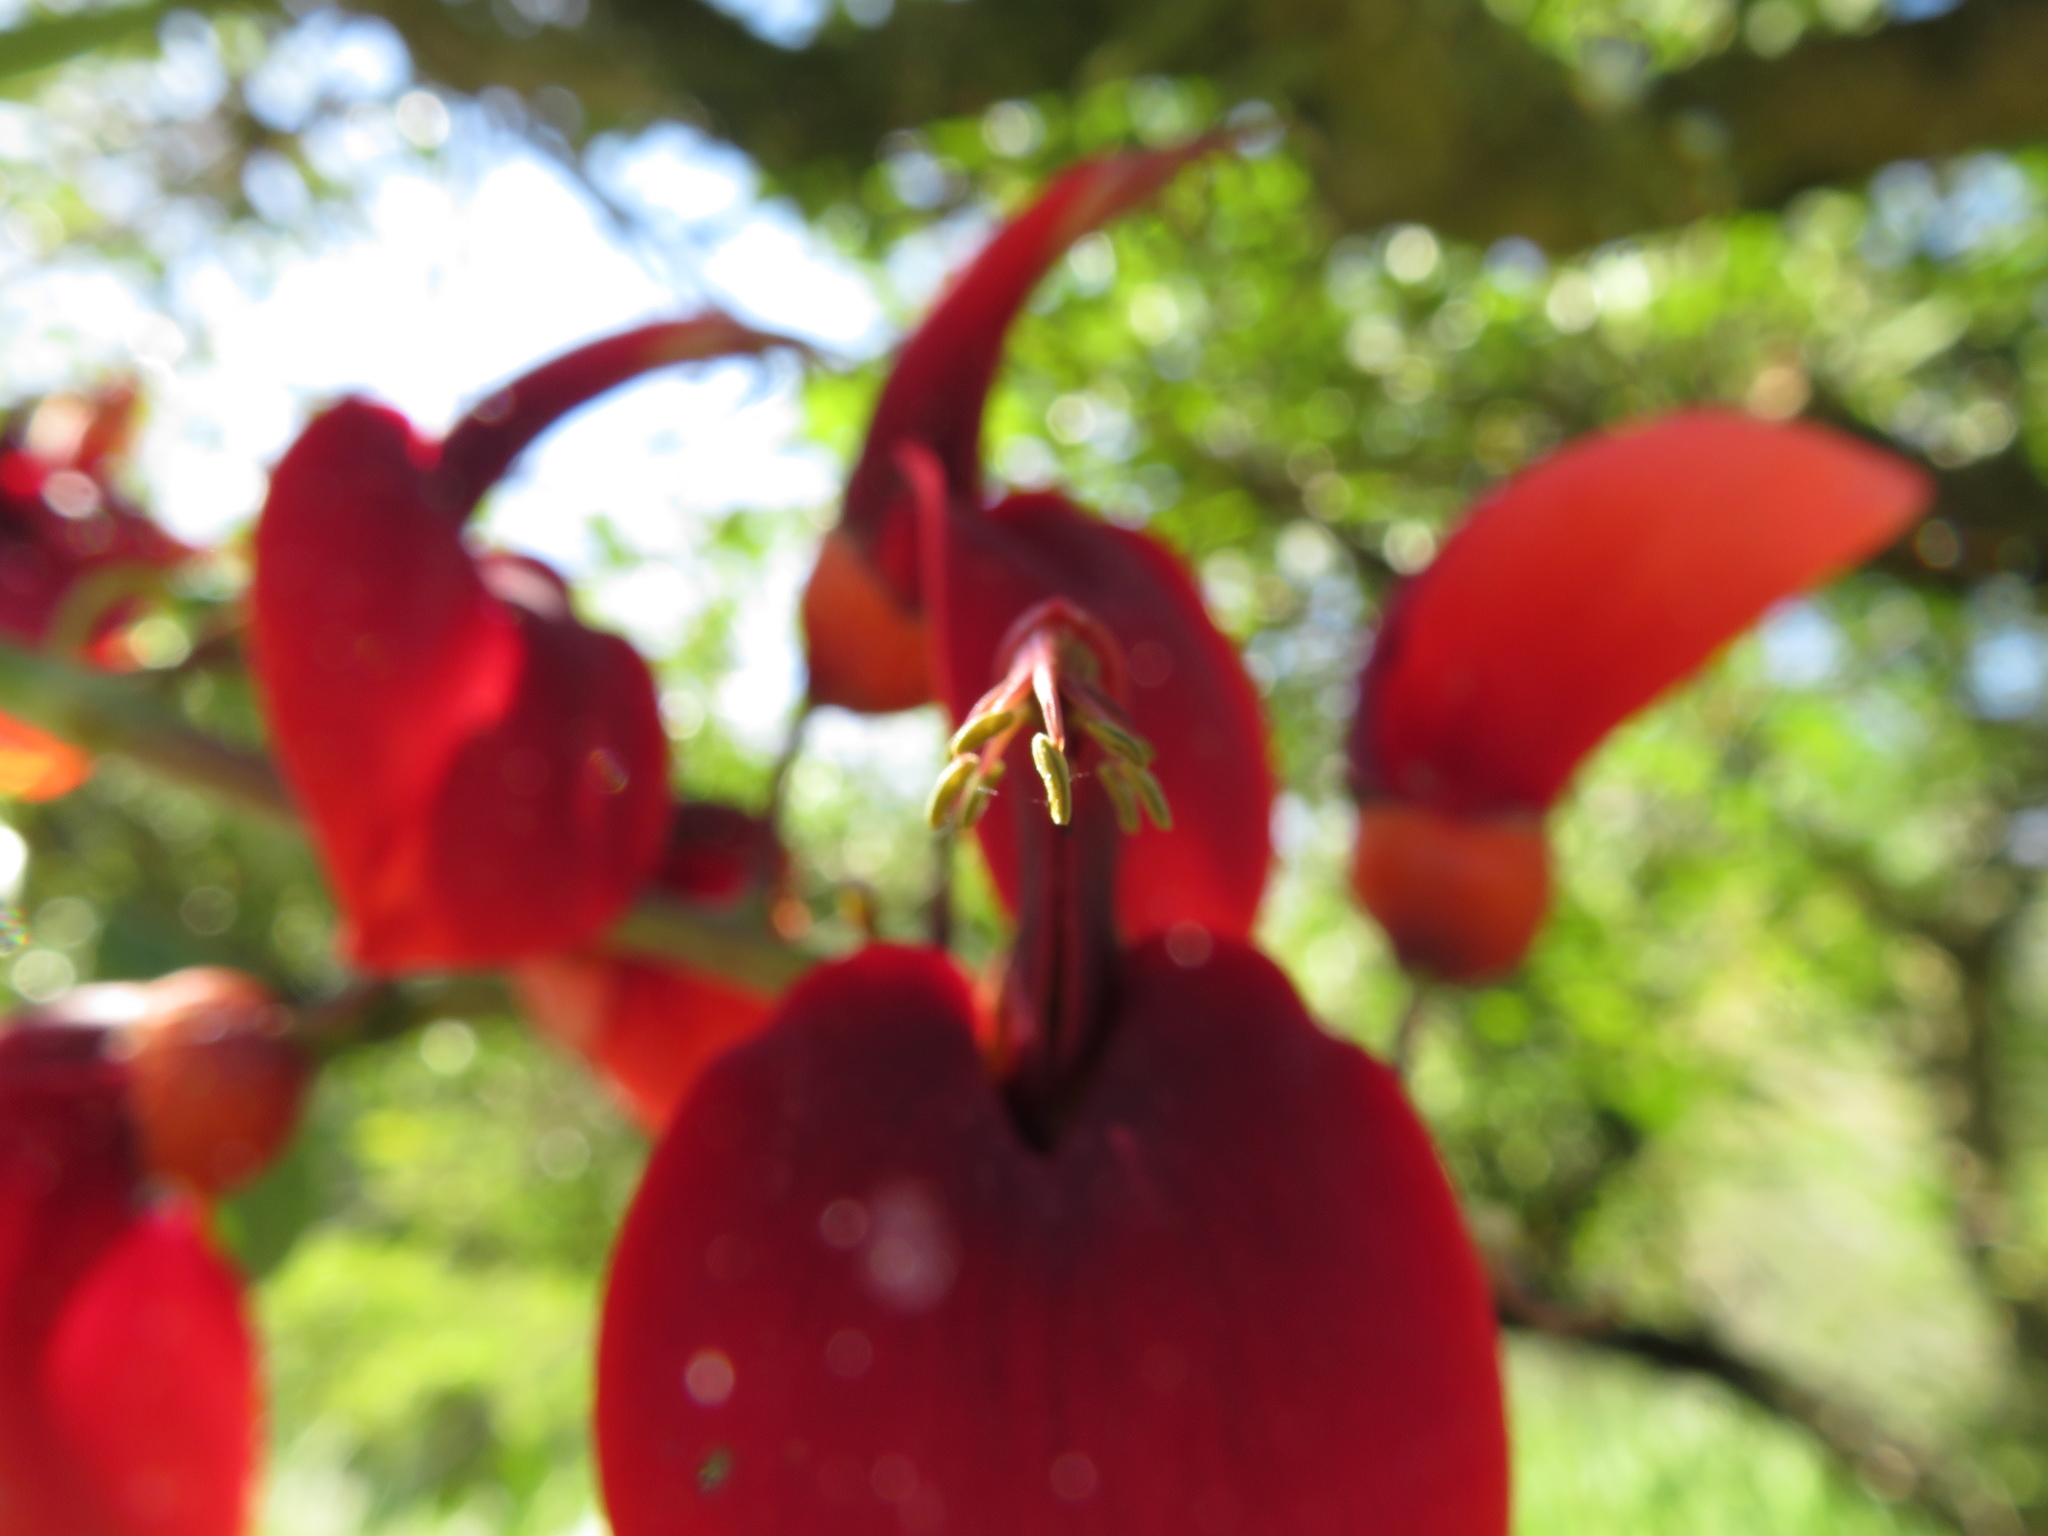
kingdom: Plantae
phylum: Tracheophyta
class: Magnoliopsida
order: Fabales
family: Fabaceae
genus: Erythrina
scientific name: Erythrina crista-galli
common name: Cockspur coral tree
